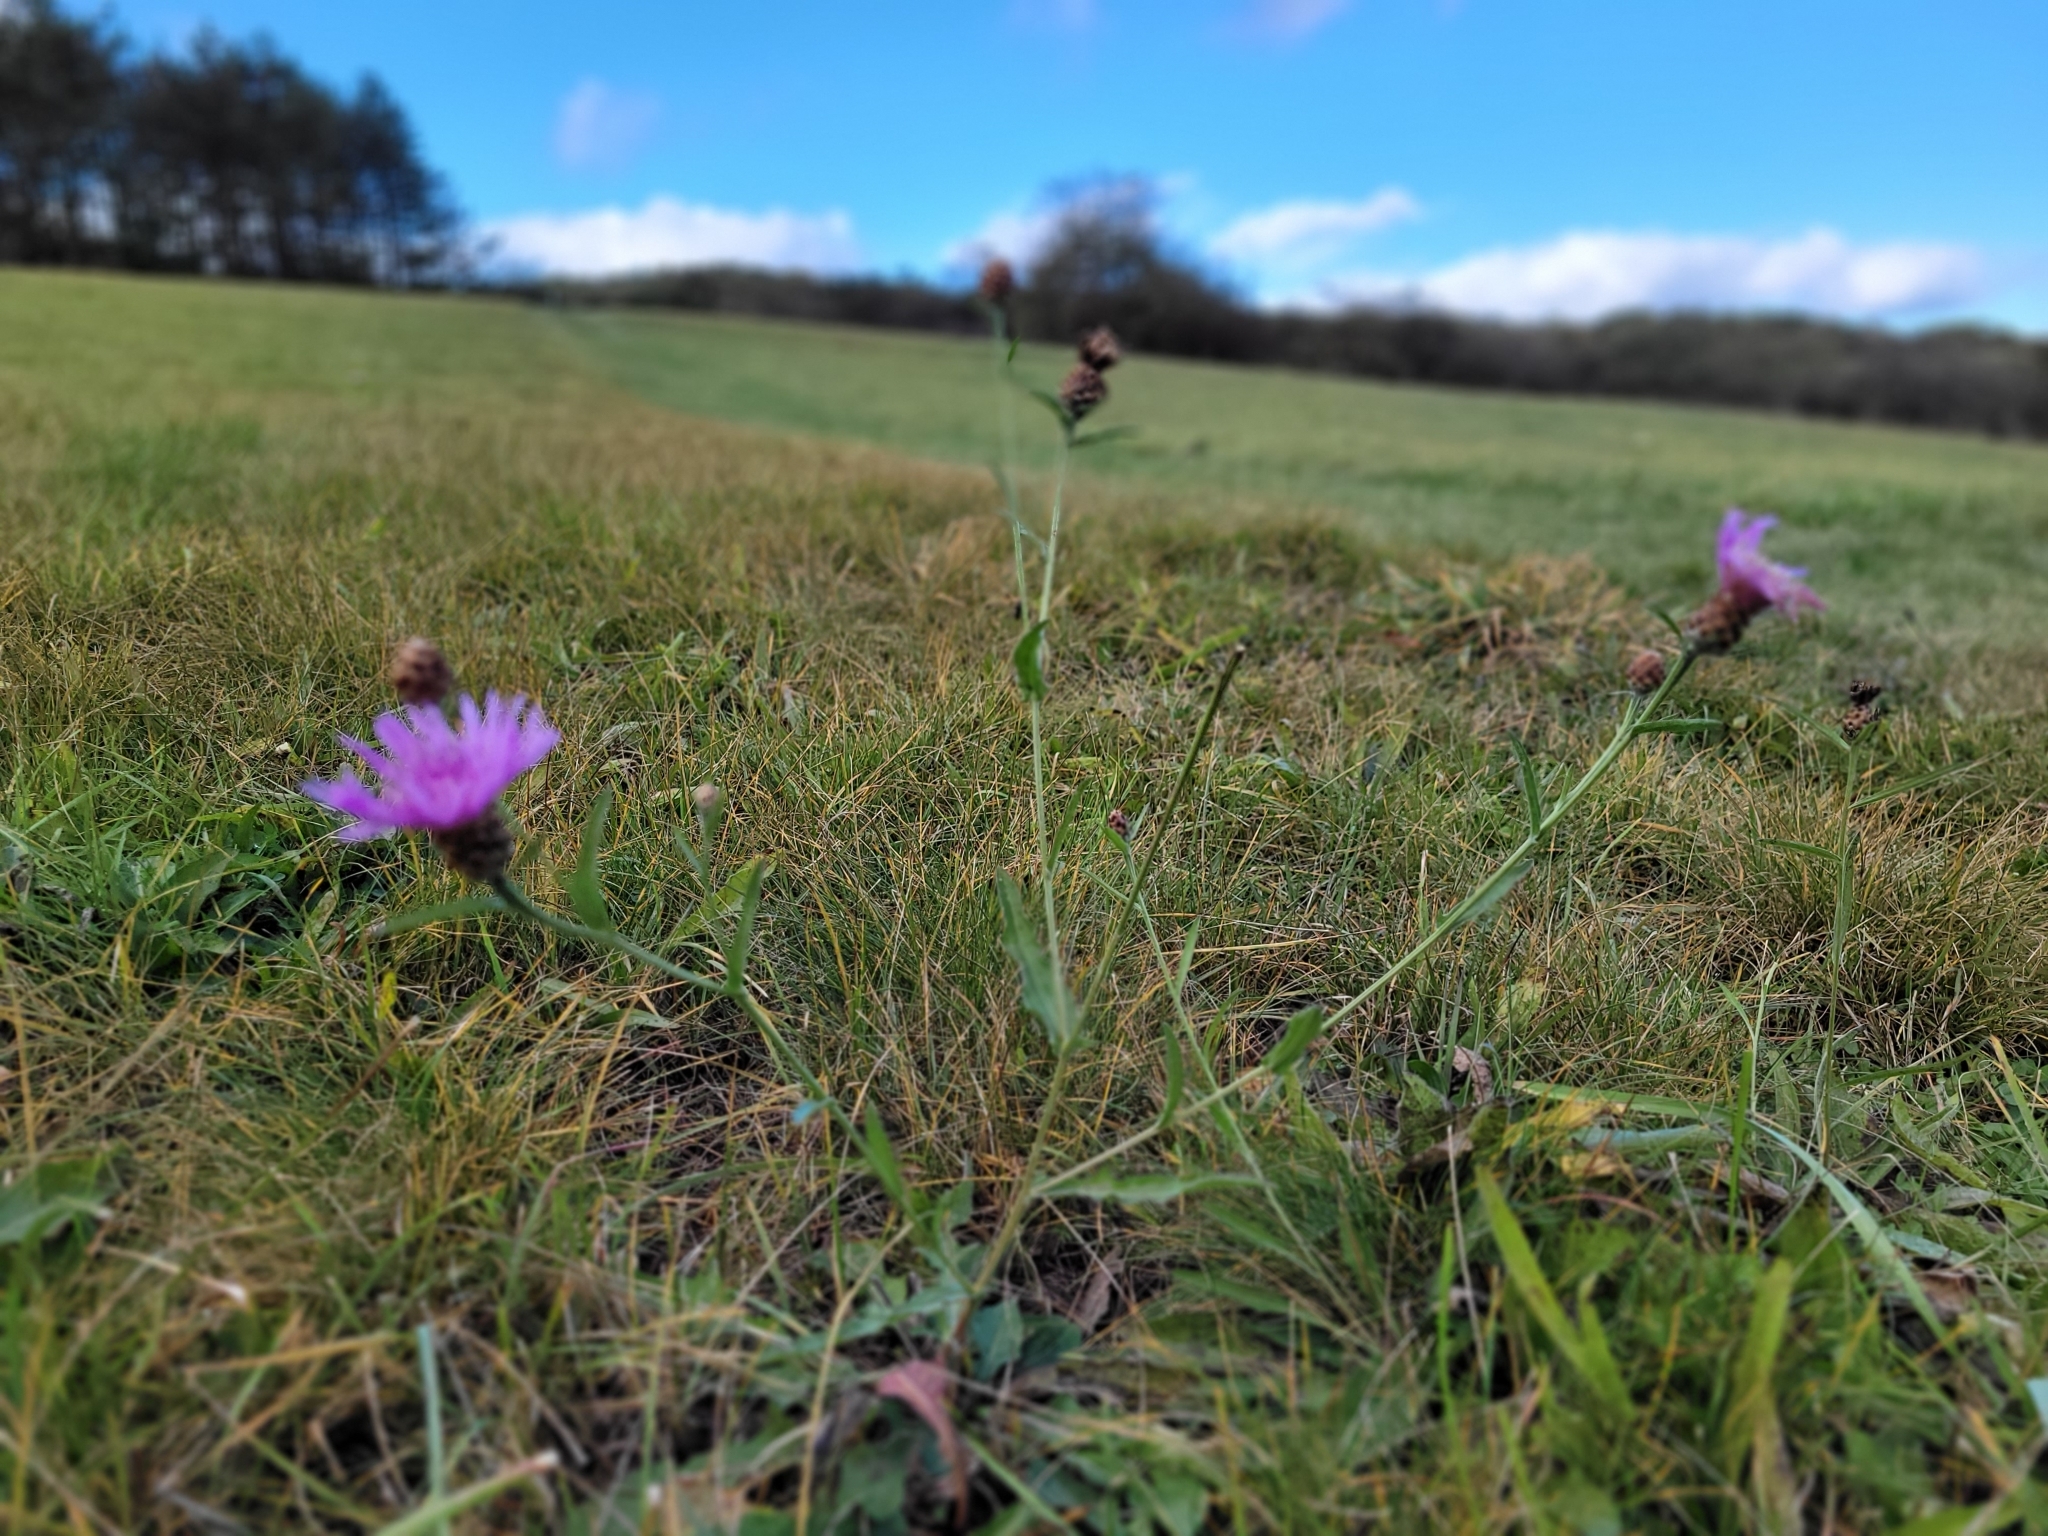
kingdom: Plantae
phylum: Tracheophyta
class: Magnoliopsida
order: Asterales
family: Asteraceae
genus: Centaurea
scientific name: Centaurea jacea
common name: Brown knapweed
